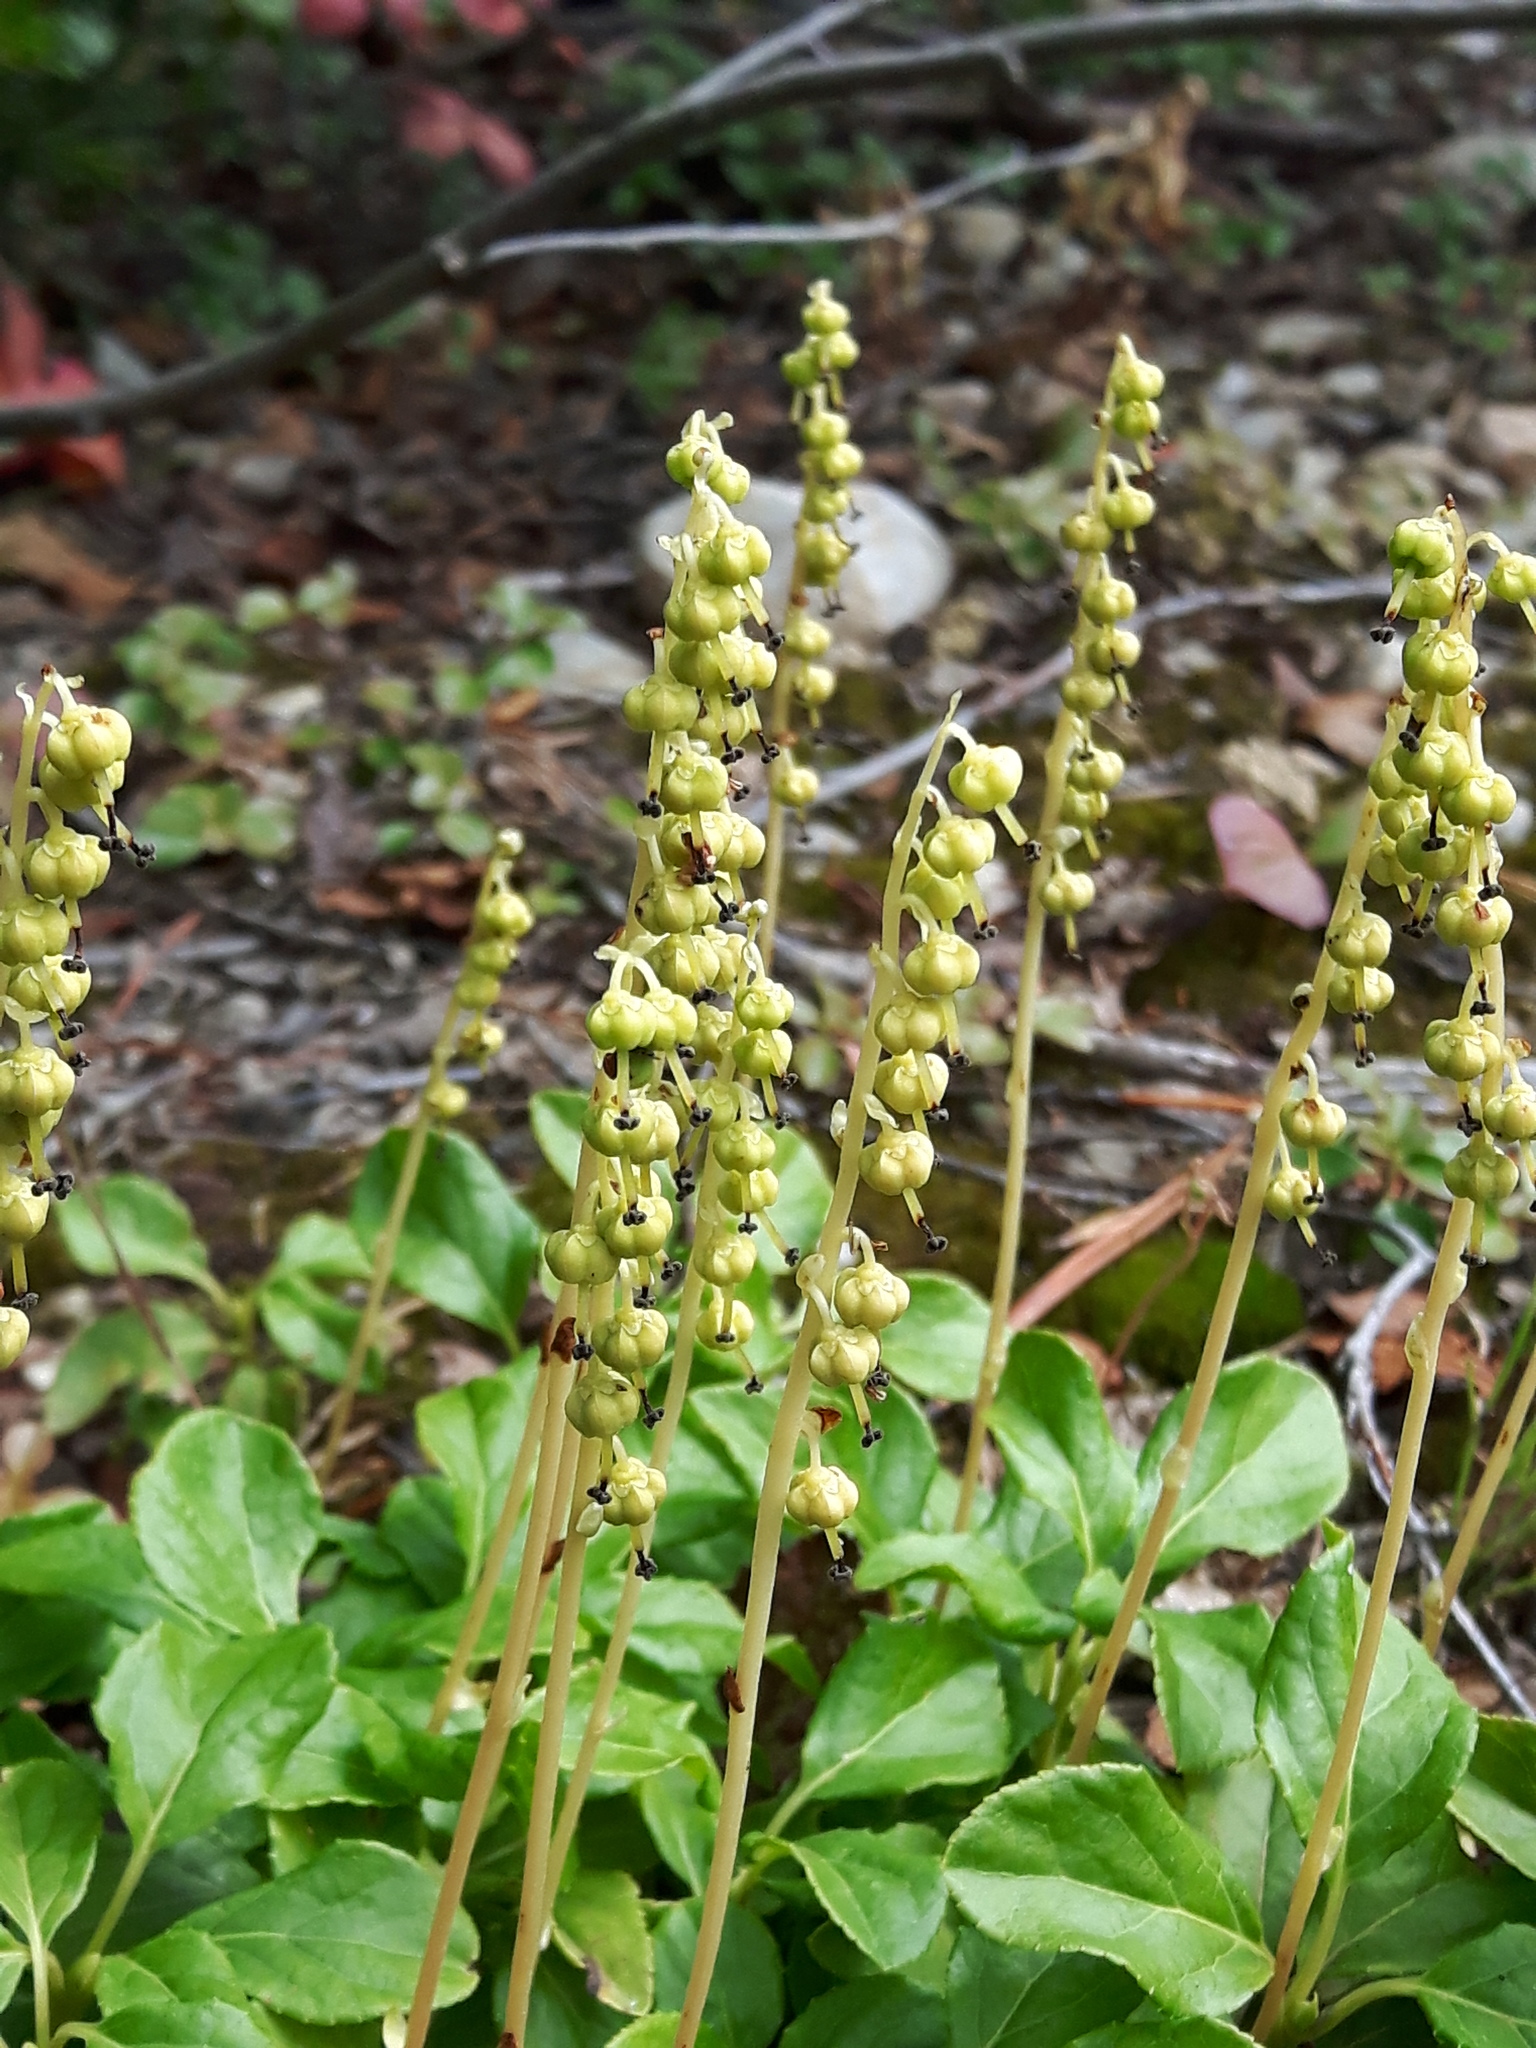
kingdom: Plantae
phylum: Tracheophyta
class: Magnoliopsida
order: Ericales
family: Ericaceae
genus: Orthilia
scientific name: Orthilia secunda
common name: One-sided orthilia
